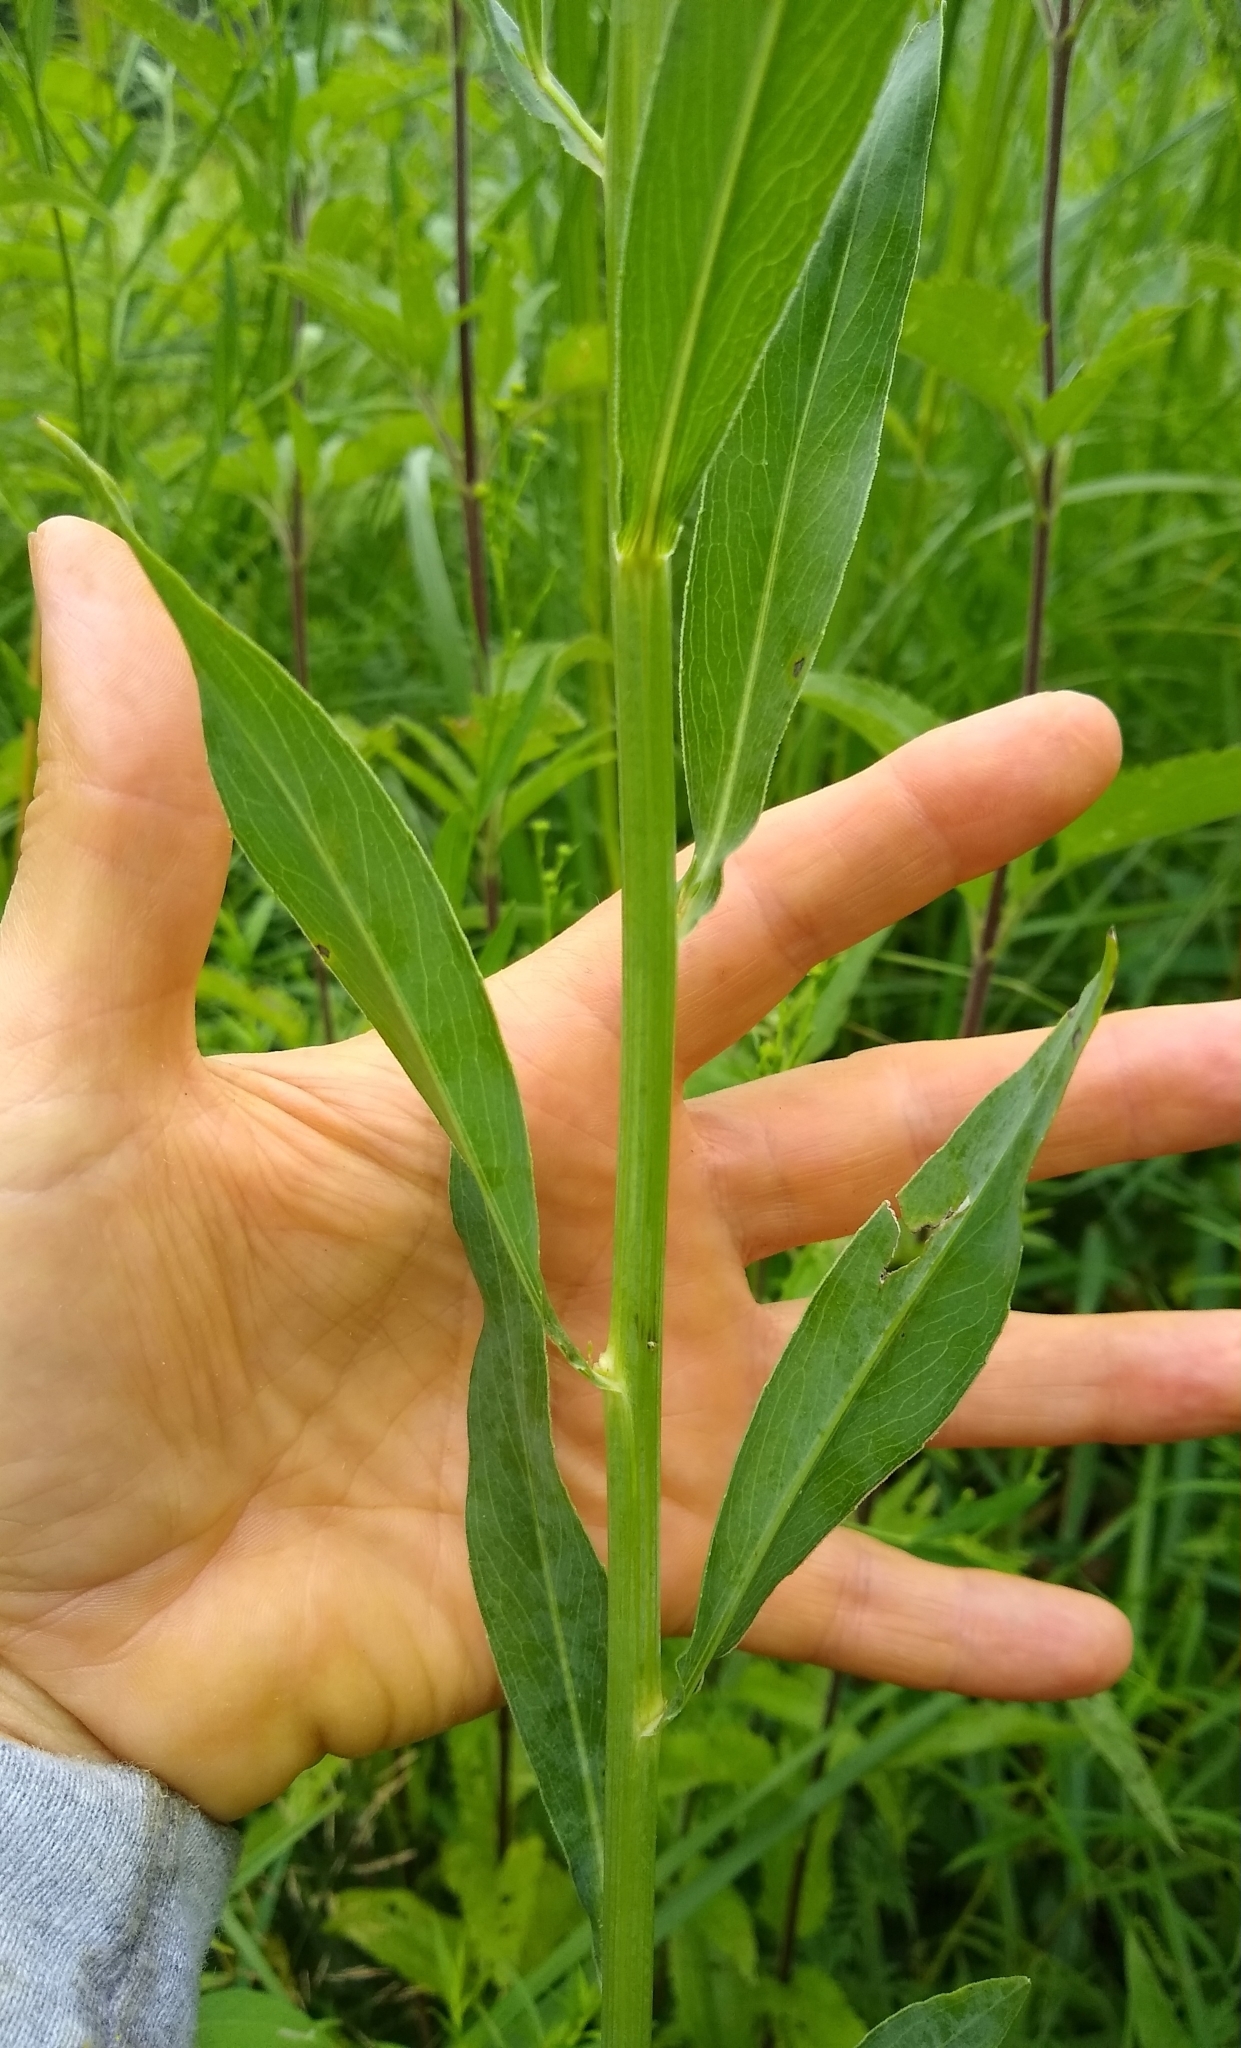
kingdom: Plantae
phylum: Tracheophyta
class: Magnoliopsida
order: Asterales
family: Asteraceae
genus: Boltonia
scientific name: Boltonia asteroides
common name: False chamomile
